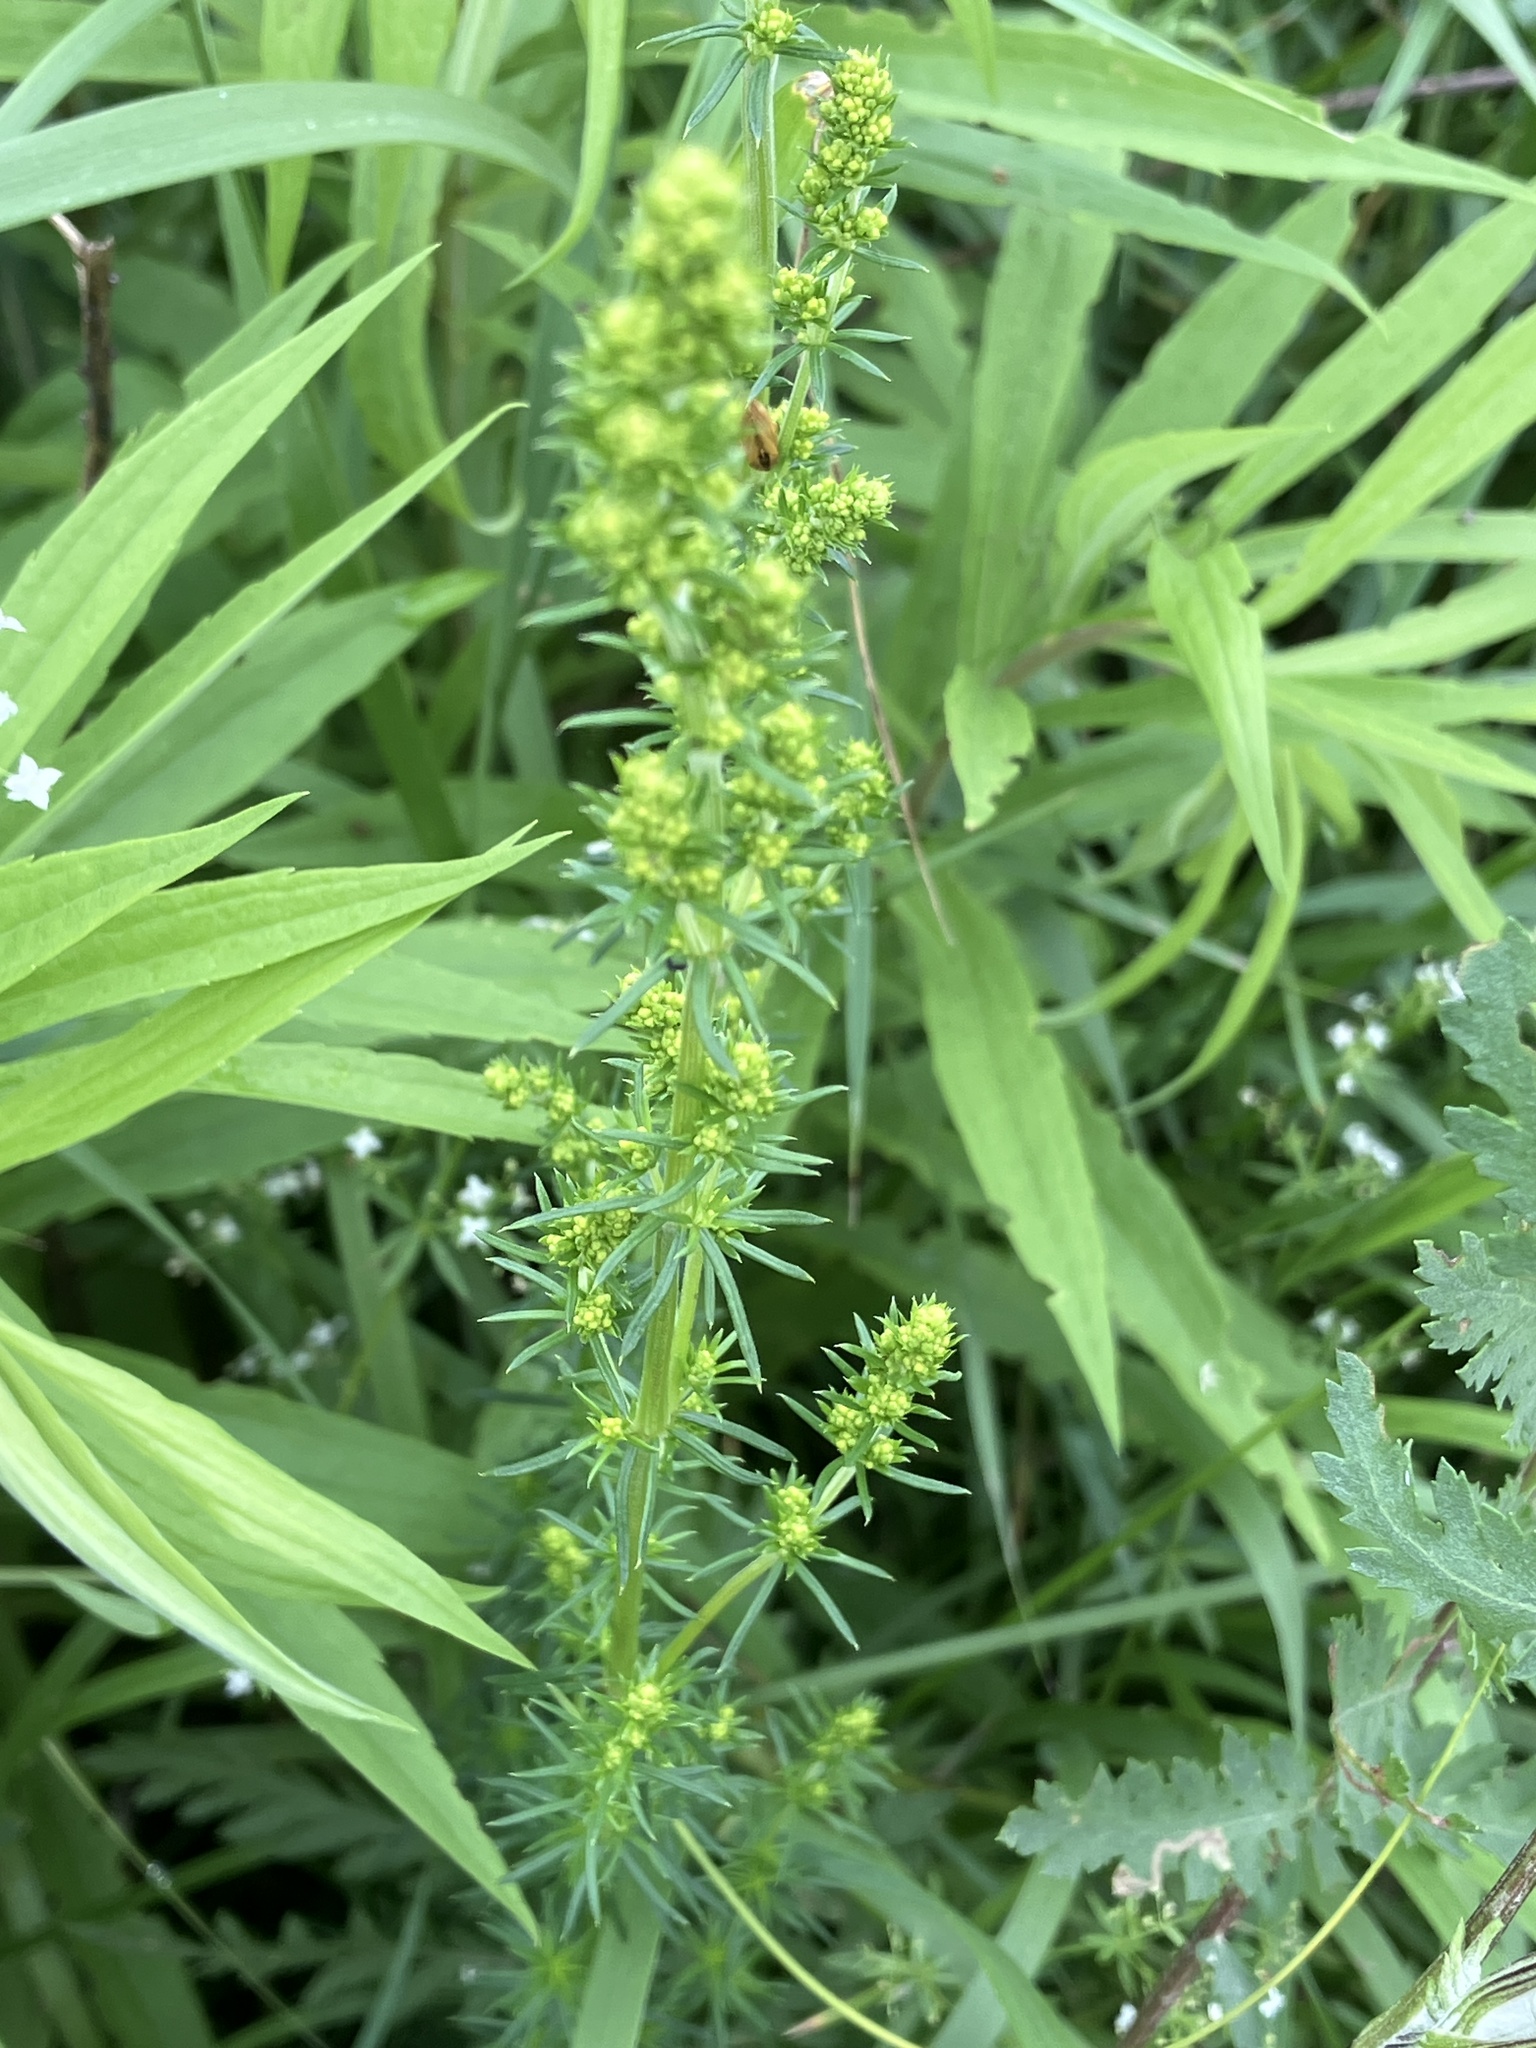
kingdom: Plantae
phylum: Tracheophyta
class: Magnoliopsida
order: Gentianales
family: Rubiaceae
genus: Galium
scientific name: Galium verum
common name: Lady's bedstraw
